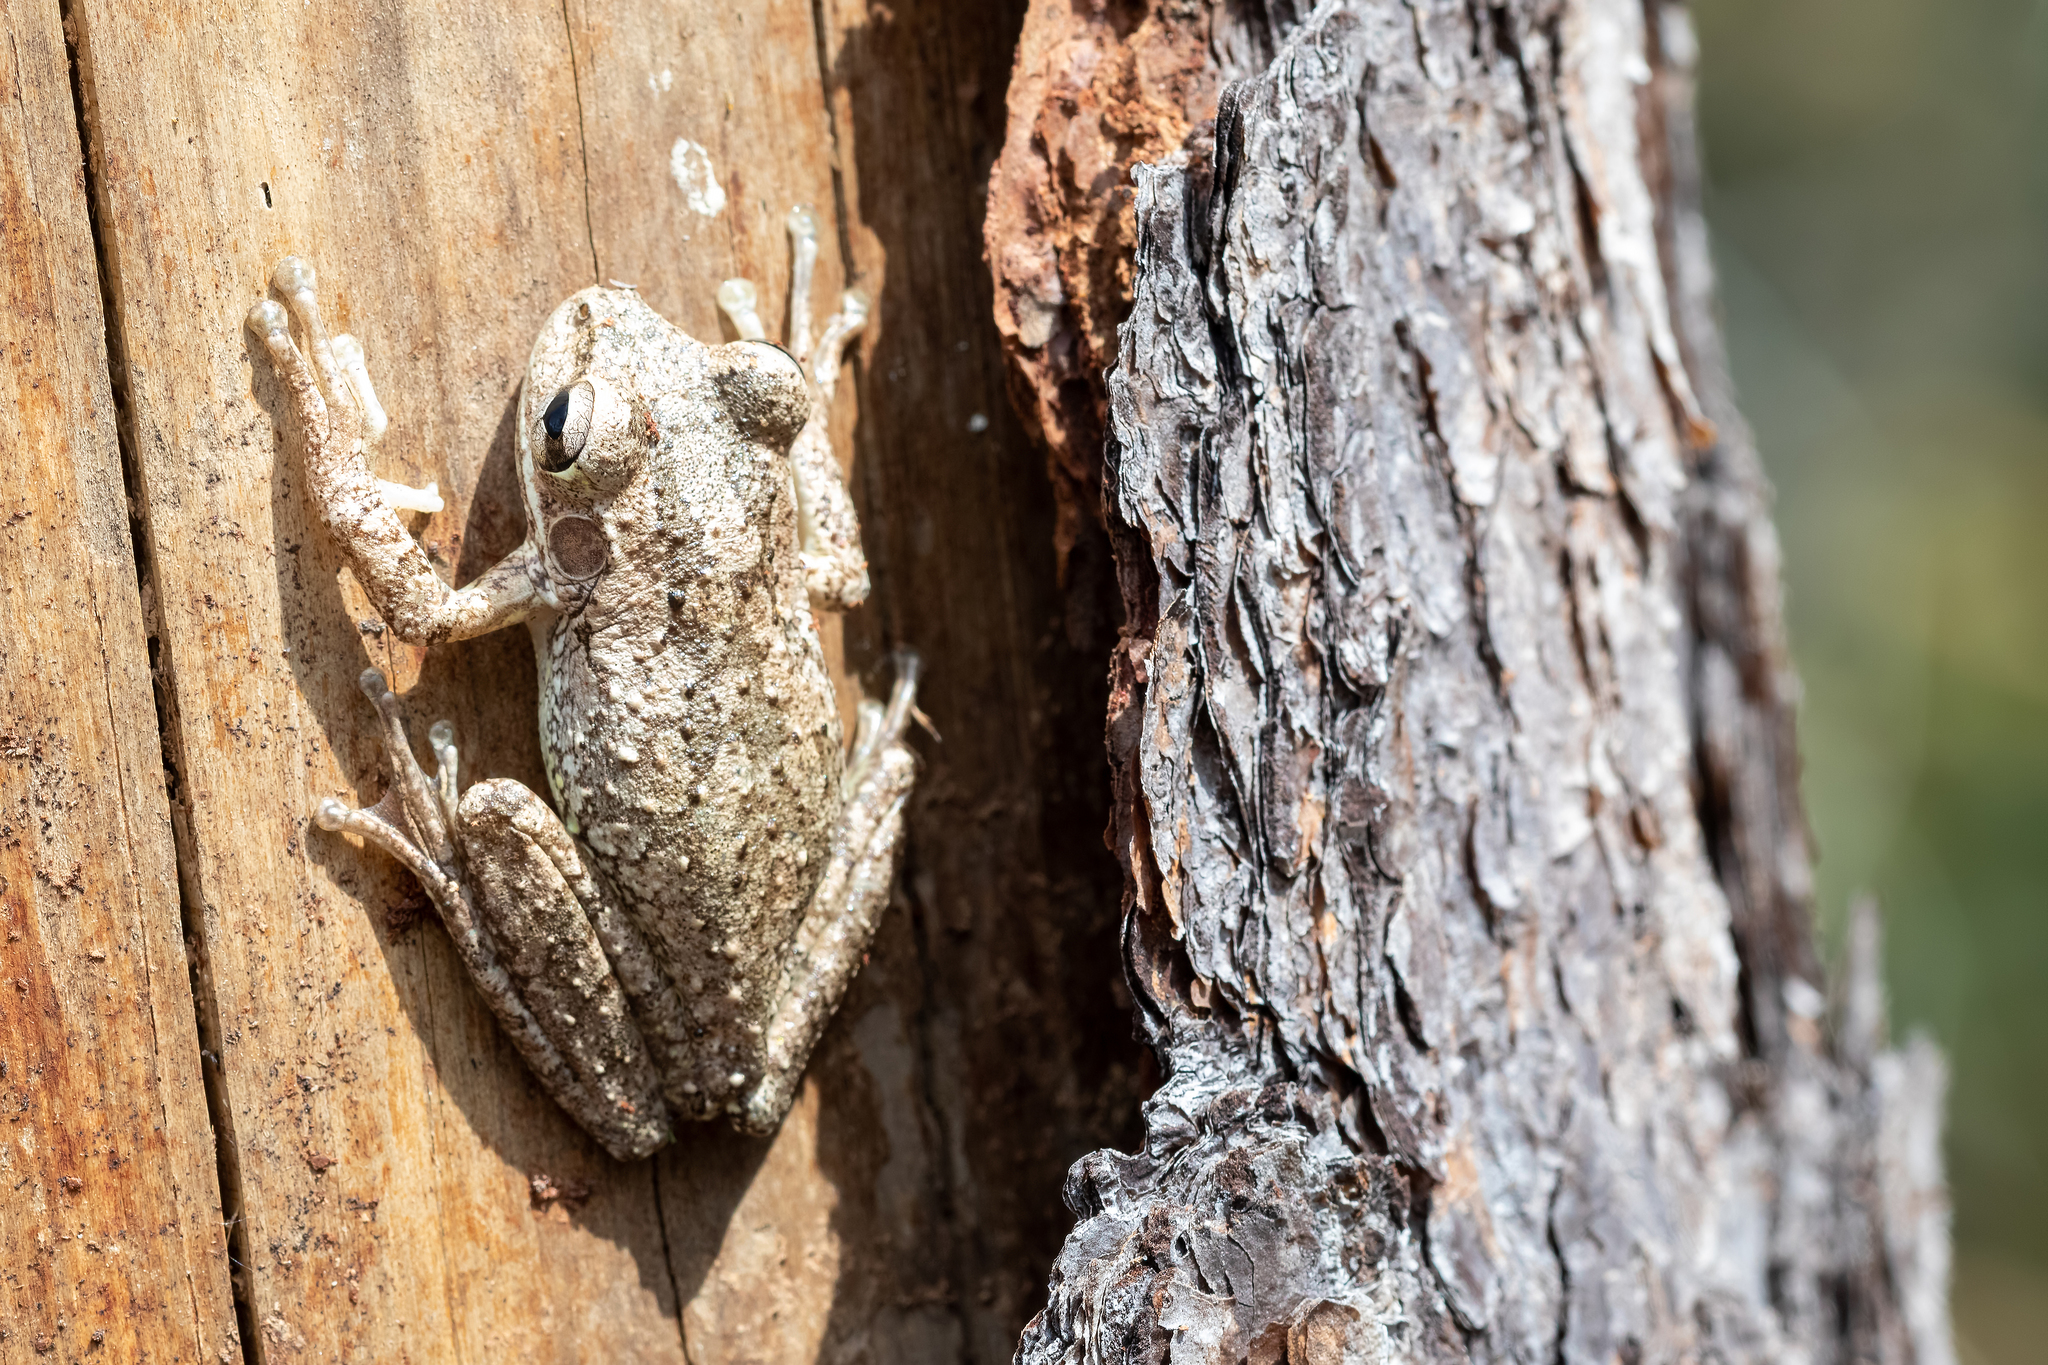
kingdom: Animalia
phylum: Chordata
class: Amphibia
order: Anura
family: Hylidae
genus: Osteopilus
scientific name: Osteopilus septentrionalis
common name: Cuban treefrog
